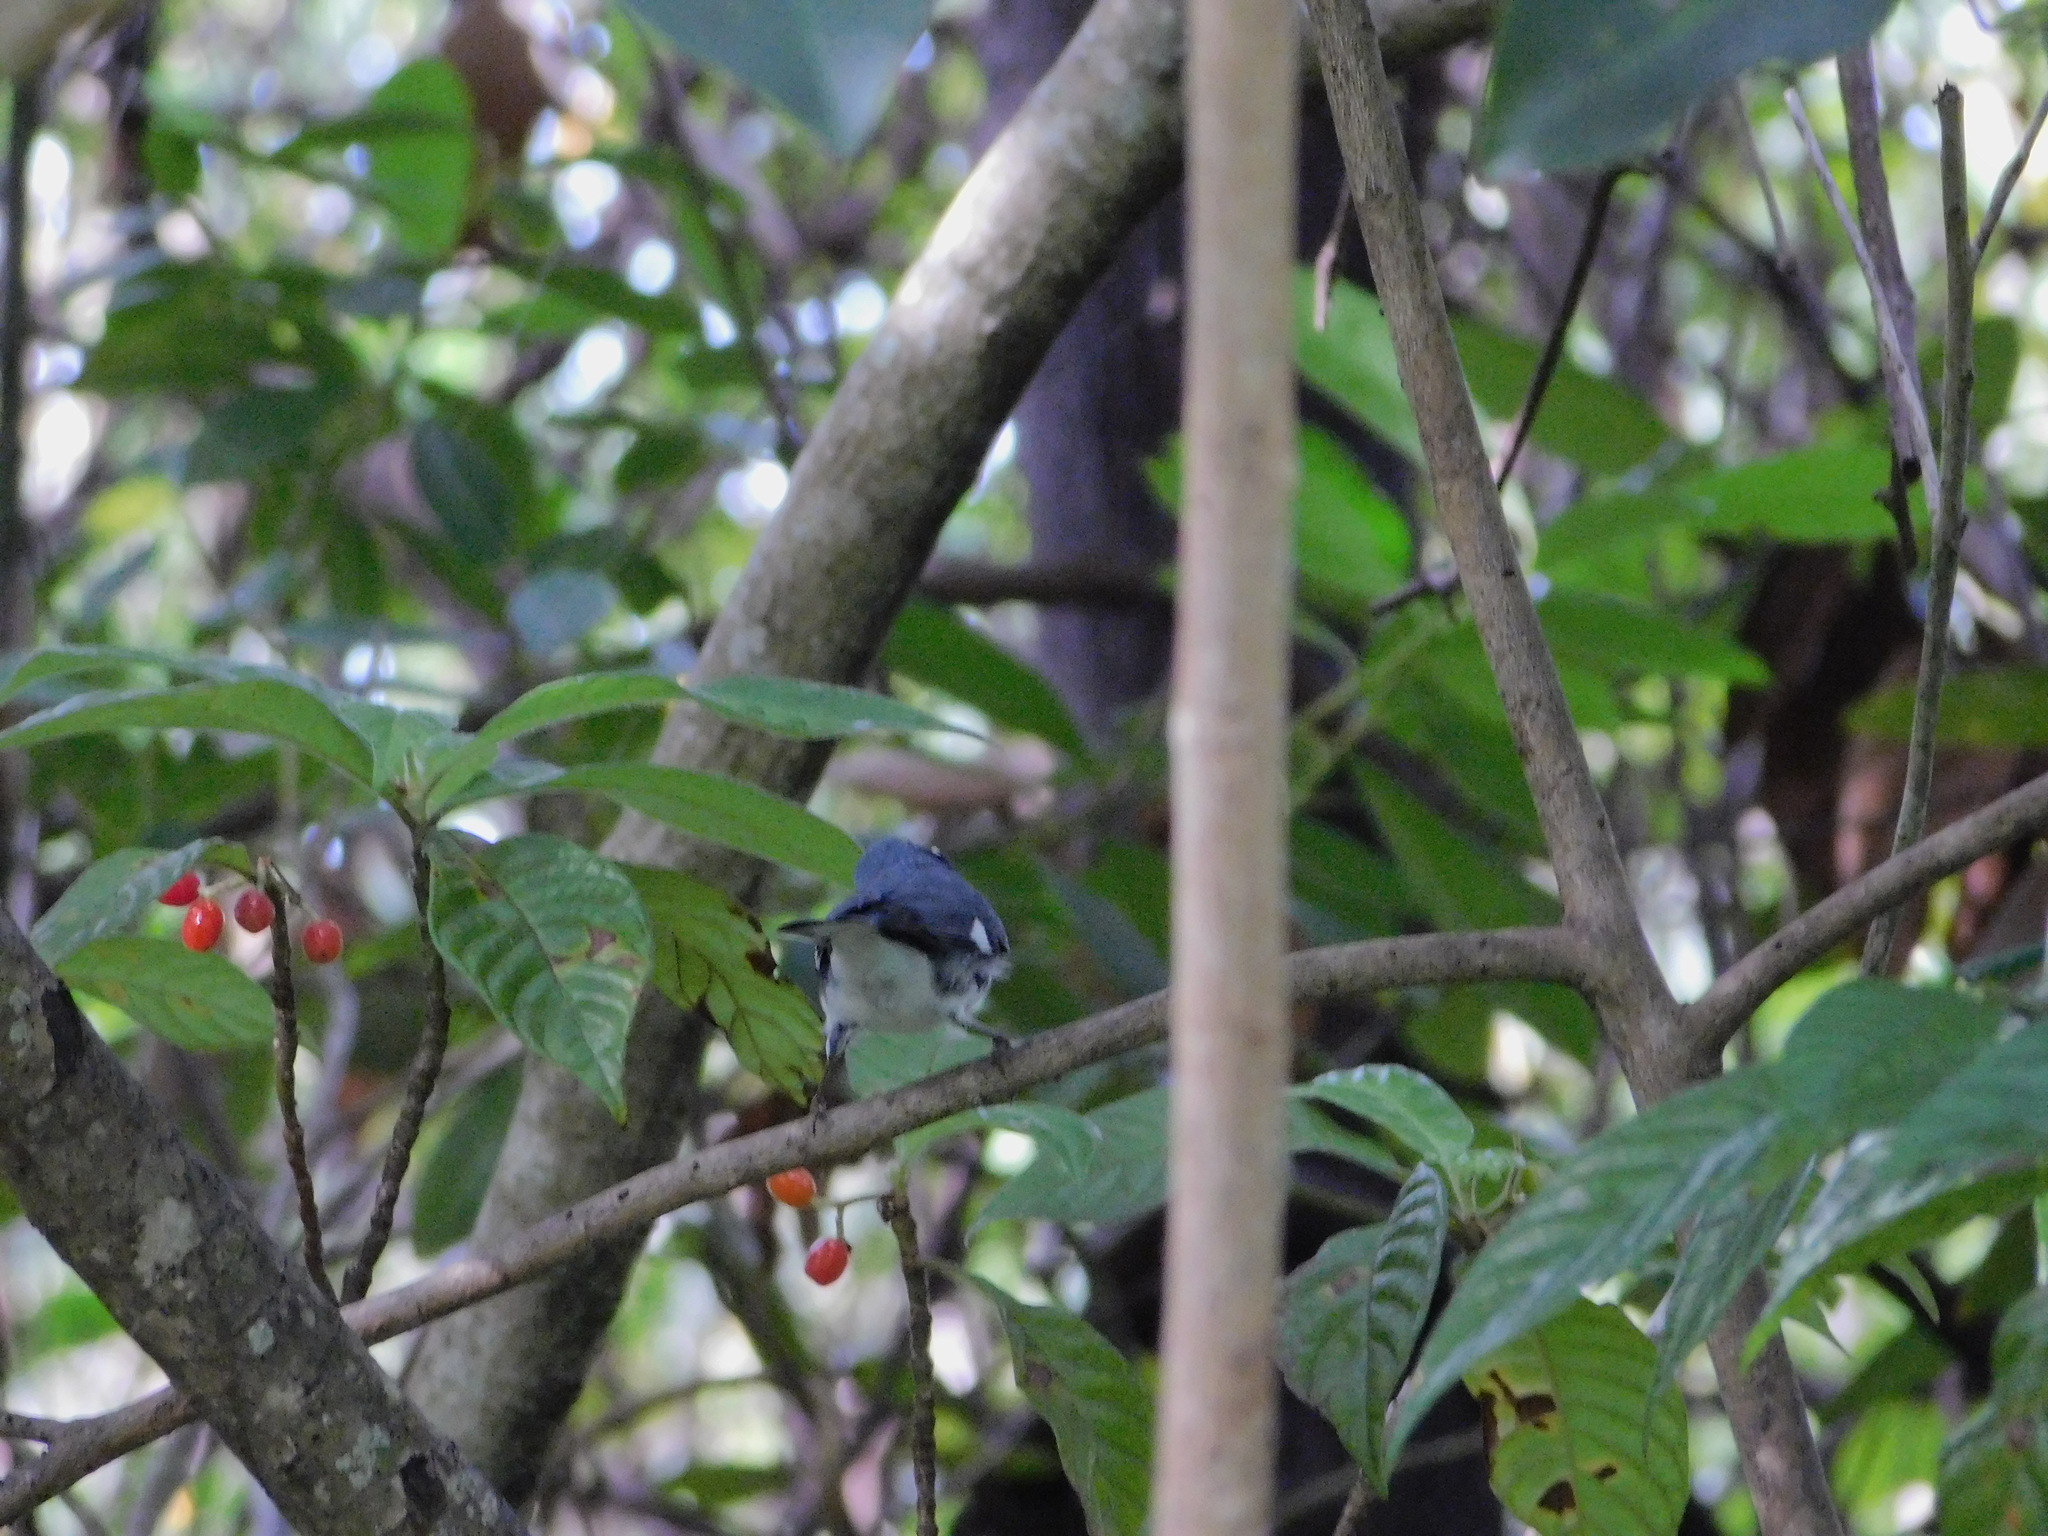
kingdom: Animalia
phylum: Chordata
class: Aves
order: Passeriformes
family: Parulidae
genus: Setophaga
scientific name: Setophaga caerulescens
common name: Black-throated blue warbler
